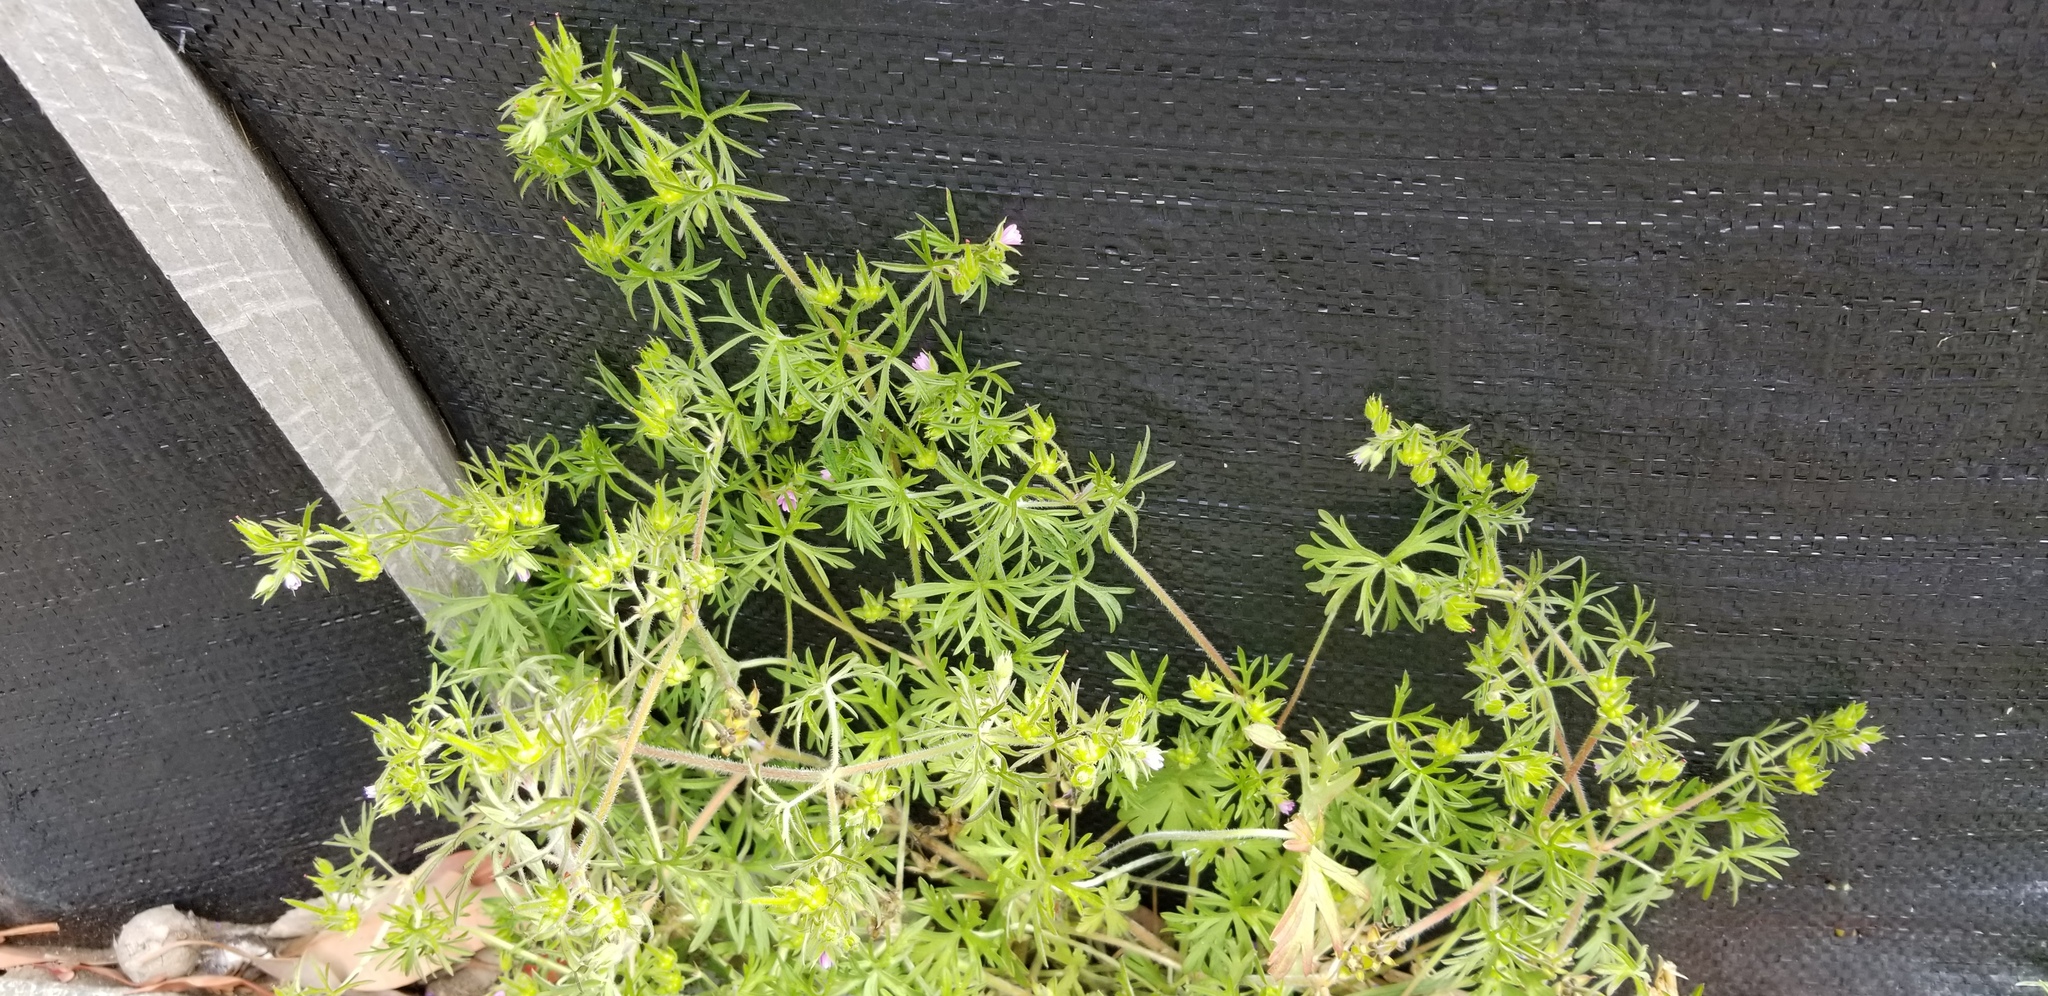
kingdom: Plantae
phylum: Tracheophyta
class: Magnoliopsida
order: Geraniales
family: Geraniaceae
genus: Geranium
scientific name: Geranium dissectum
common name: Cut-leaved crane's-bill
